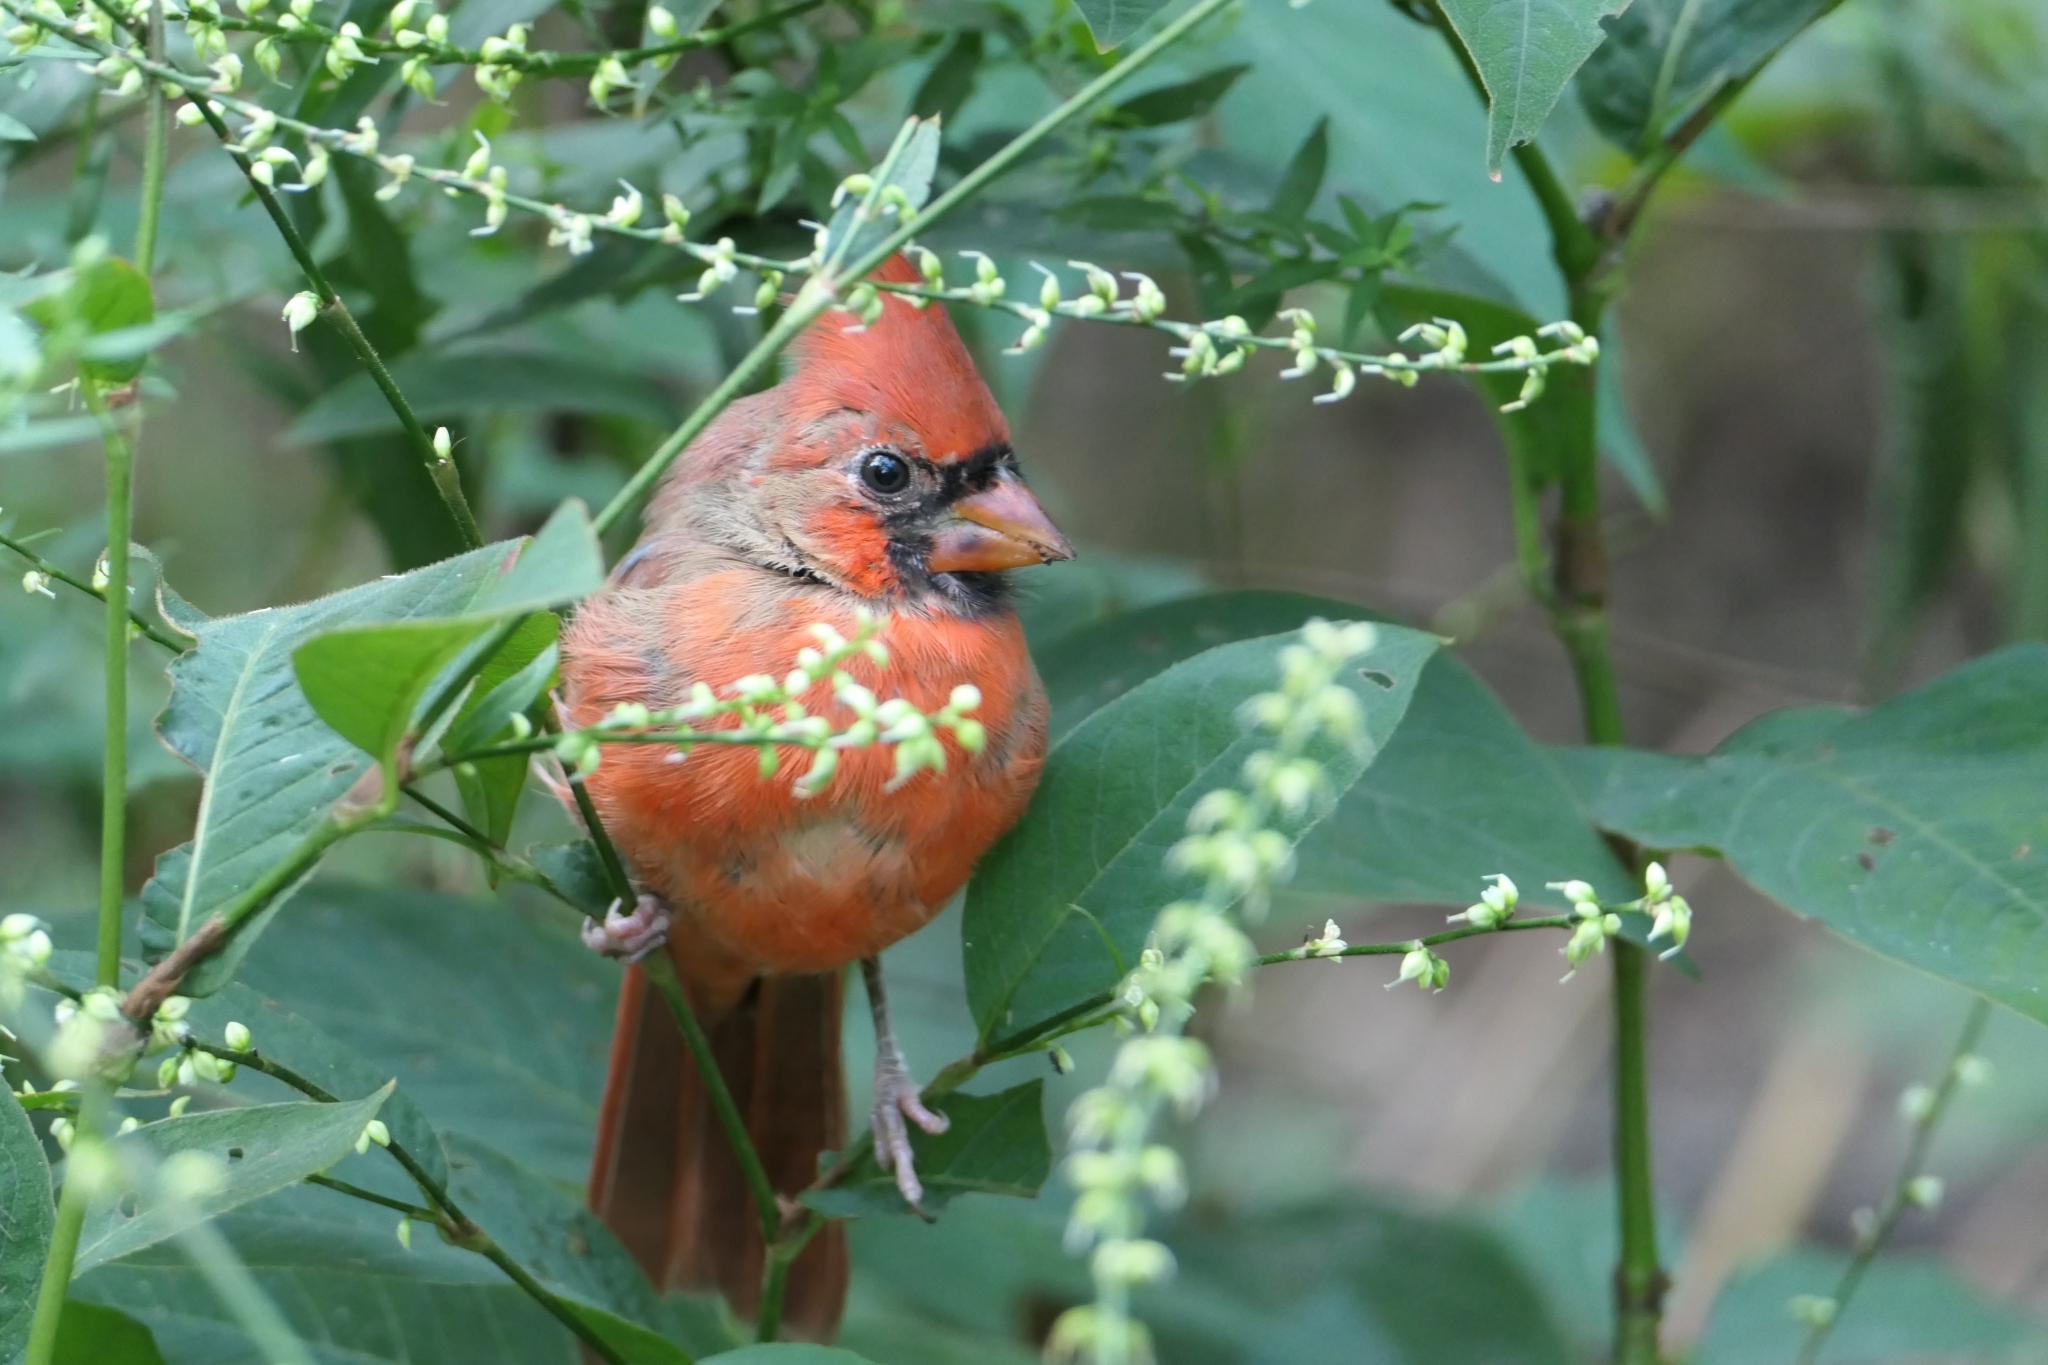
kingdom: Animalia
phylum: Chordata
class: Aves
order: Passeriformes
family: Cardinalidae
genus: Cardinalis
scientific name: Cardinalis cardinalis
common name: Northern cardinal
